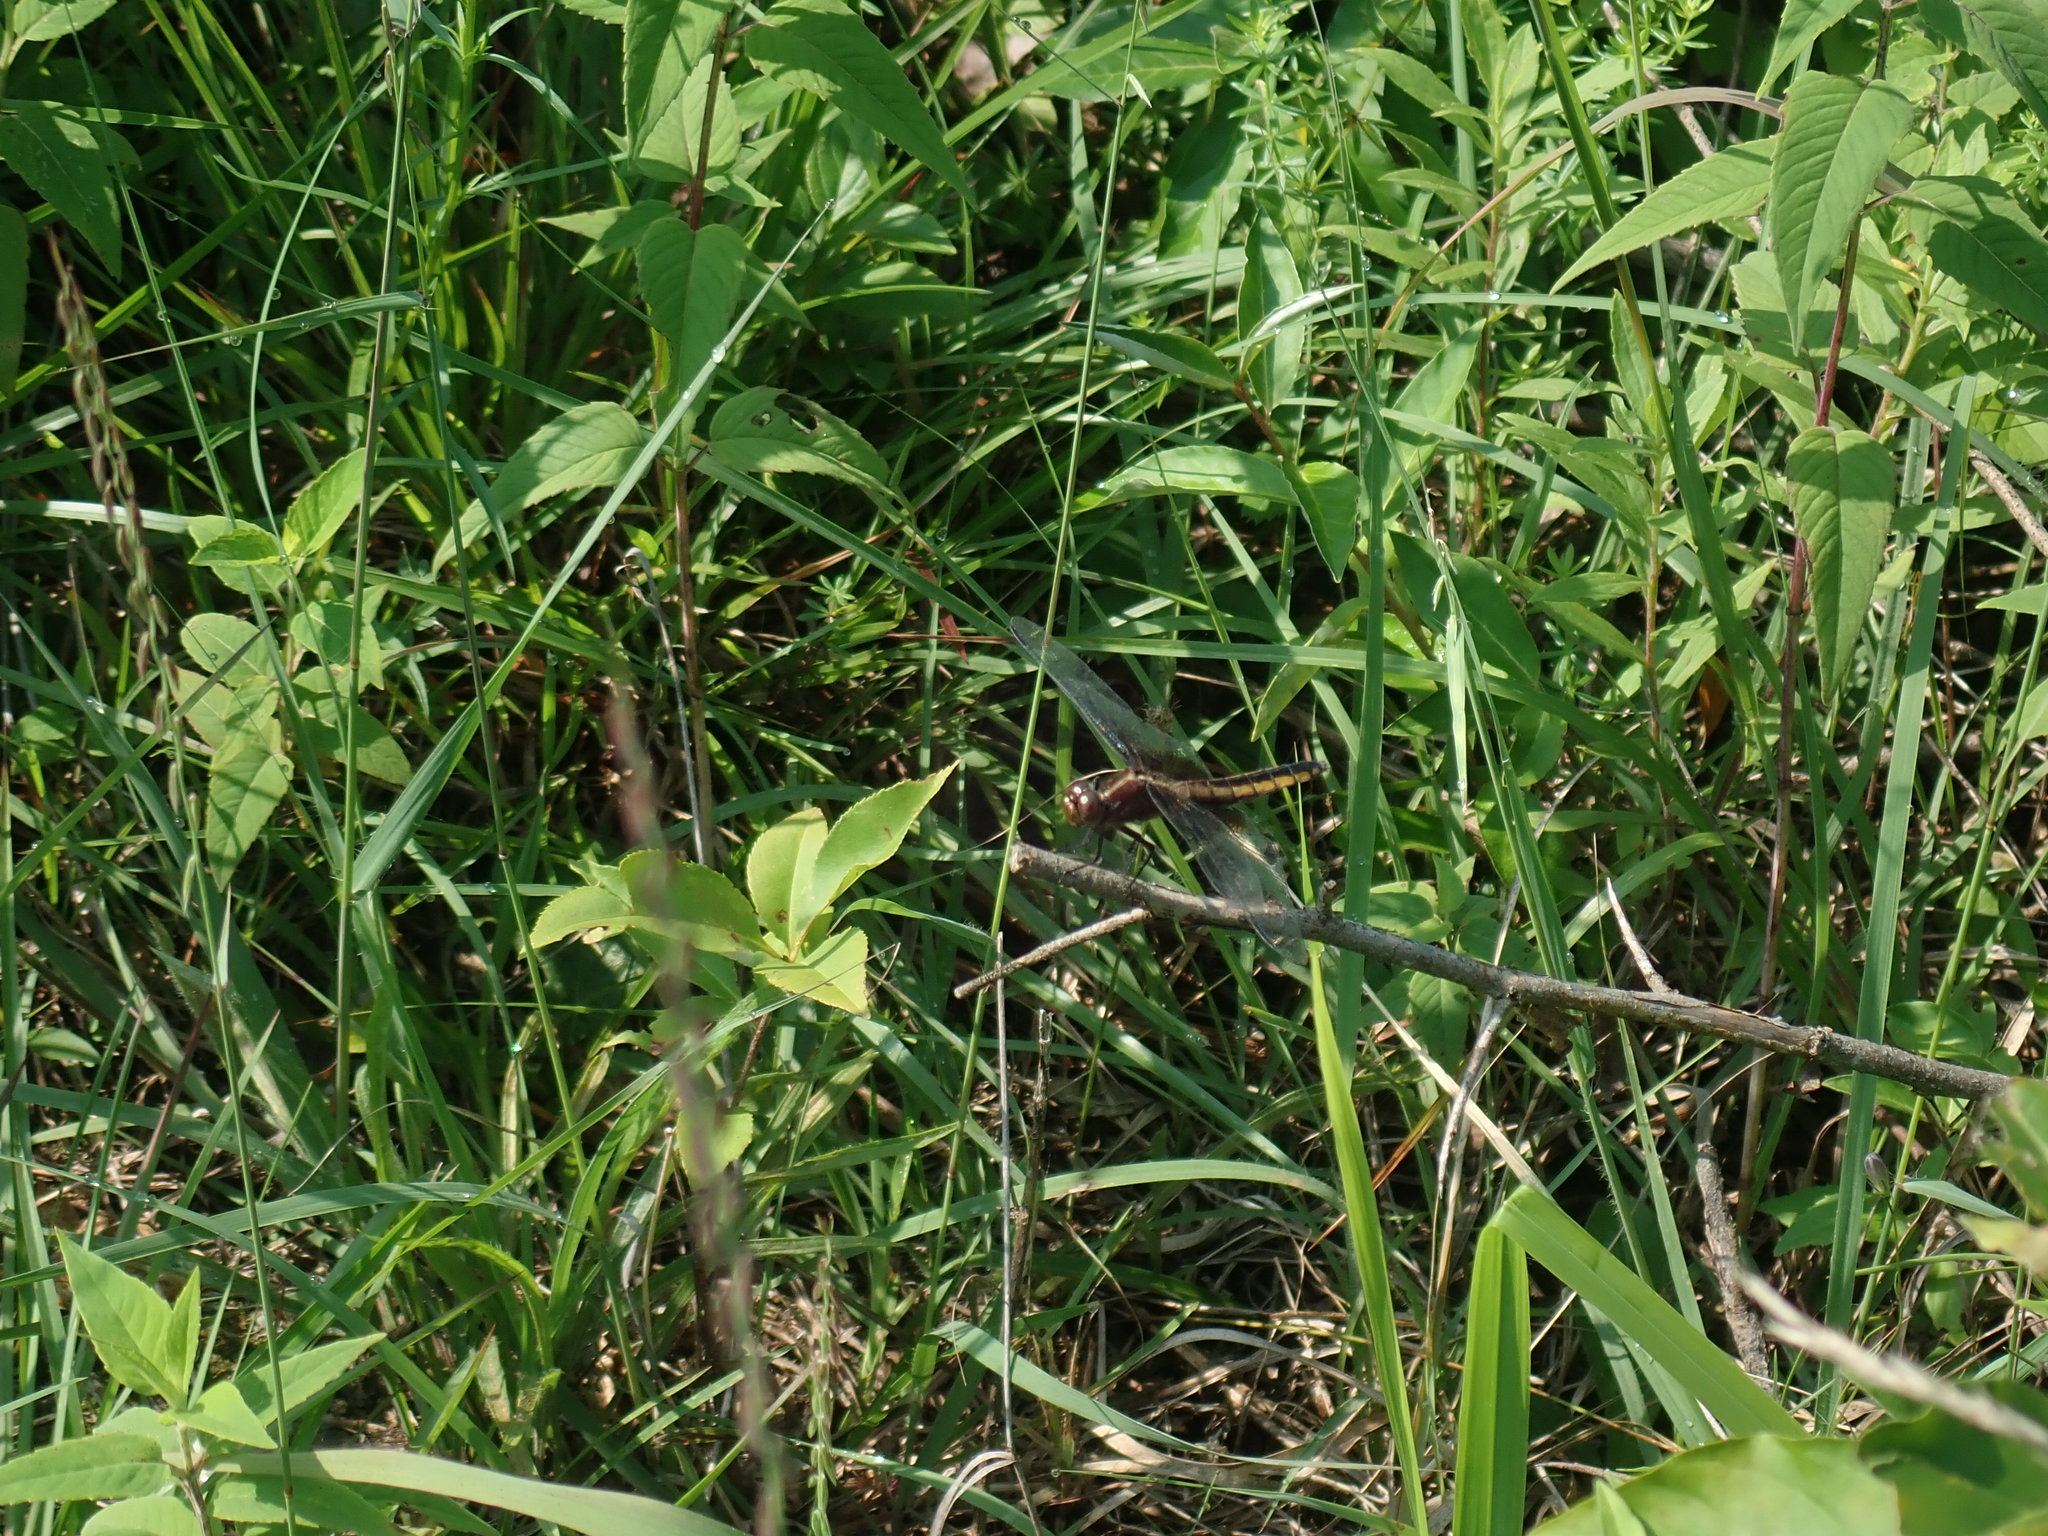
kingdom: Animalia
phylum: Arthropoda
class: Insecta
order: Odonata
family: Libellulidae
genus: Libellula
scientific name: Libellula luctuosa
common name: Widow skimmer
